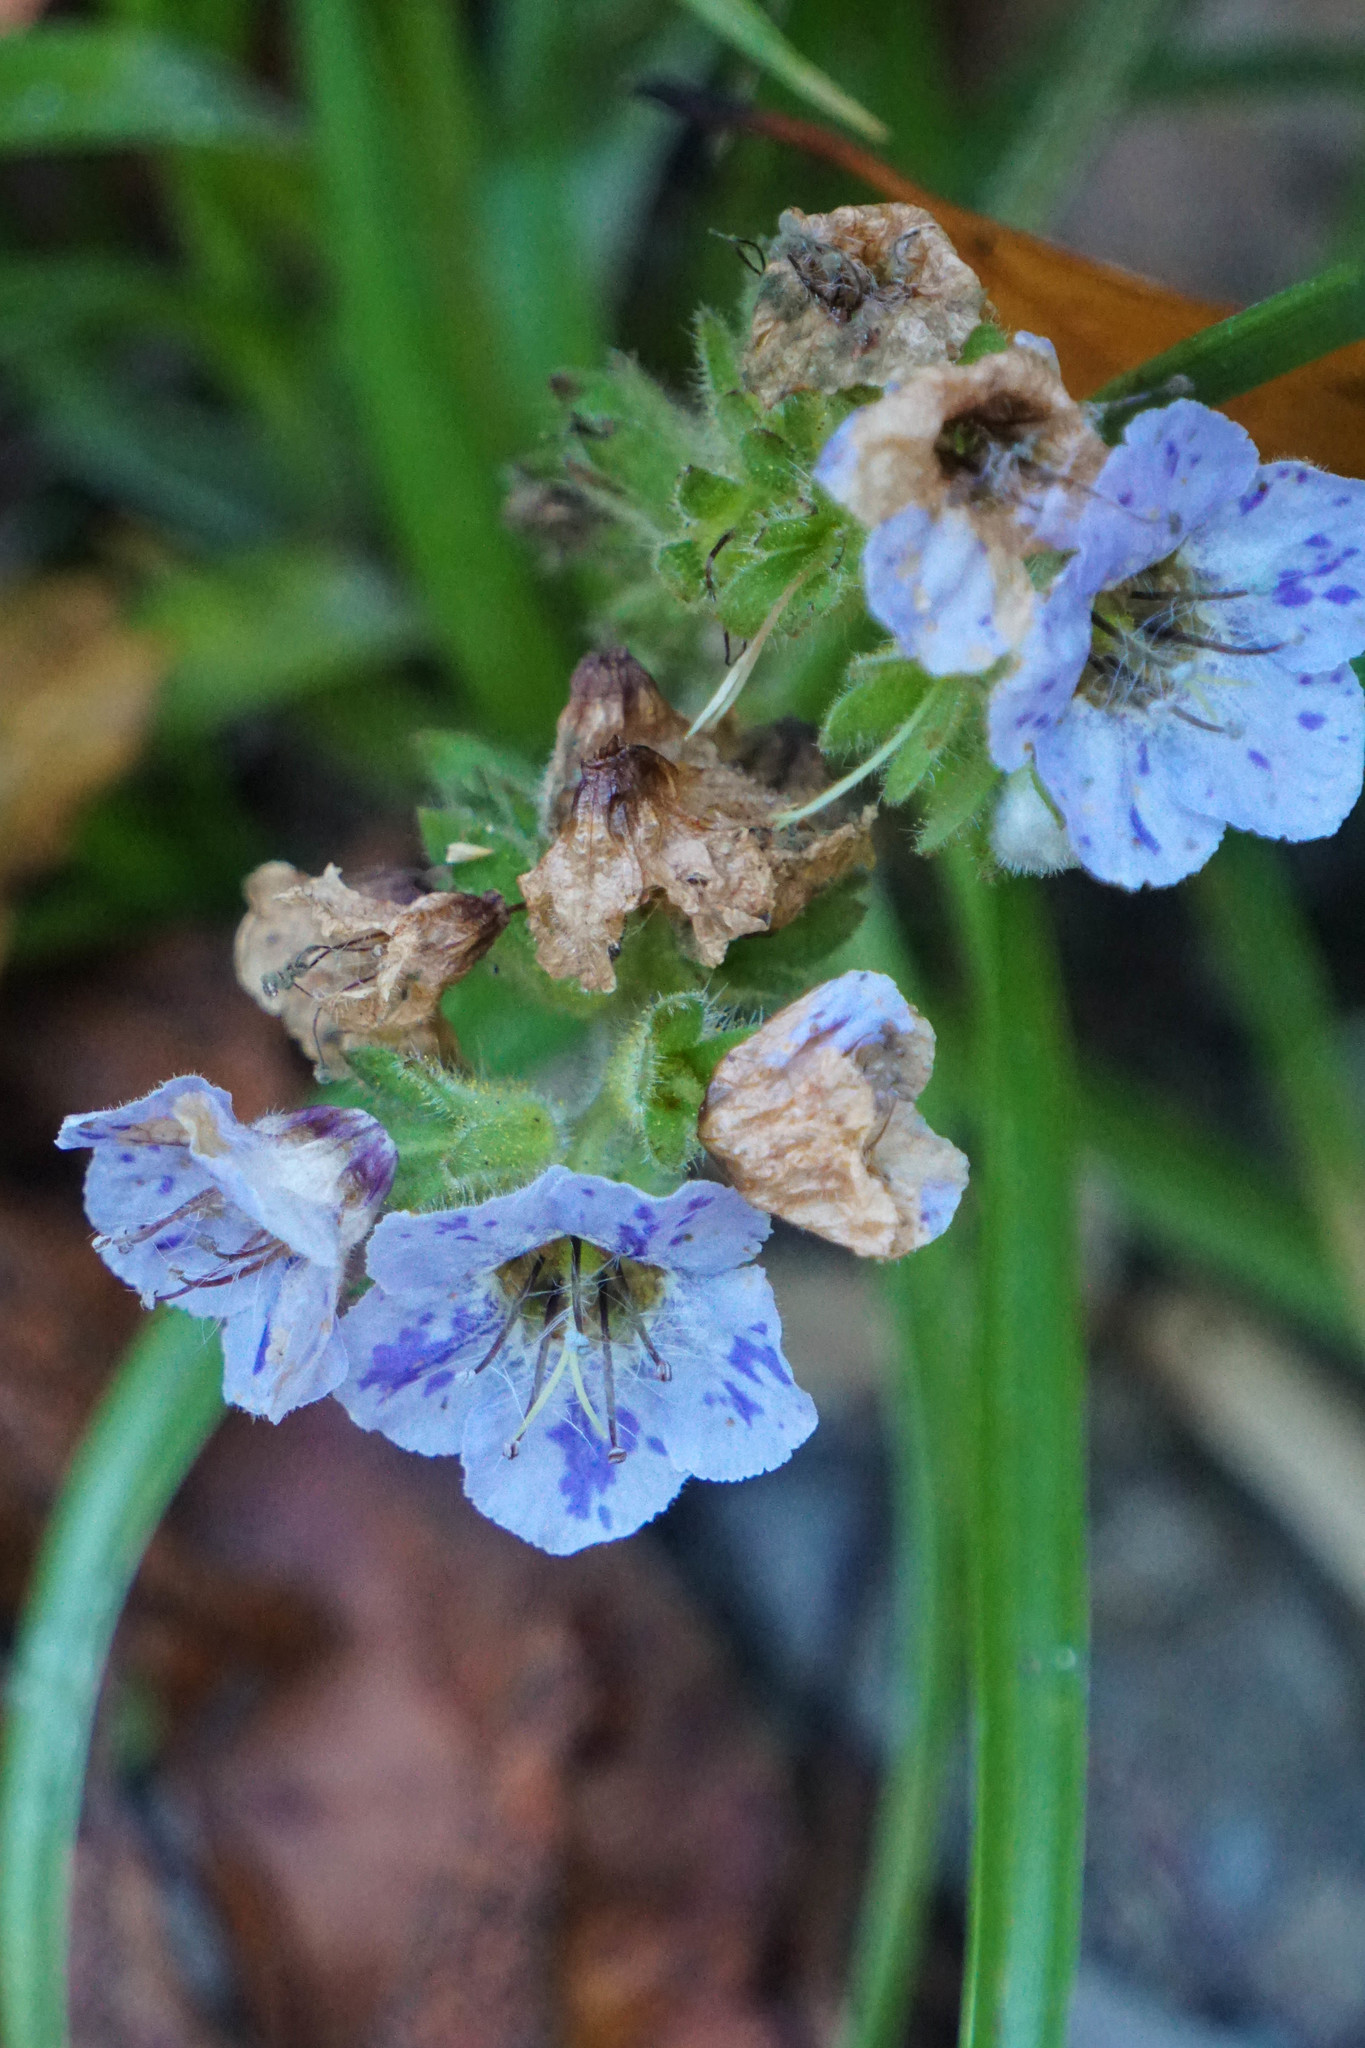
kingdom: Plantae
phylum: Tracheophyta
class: Magnoliopsida
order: Boraginales
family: Hydrophyllaceae
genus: Phacelia
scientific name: Phacelia bolanderi
